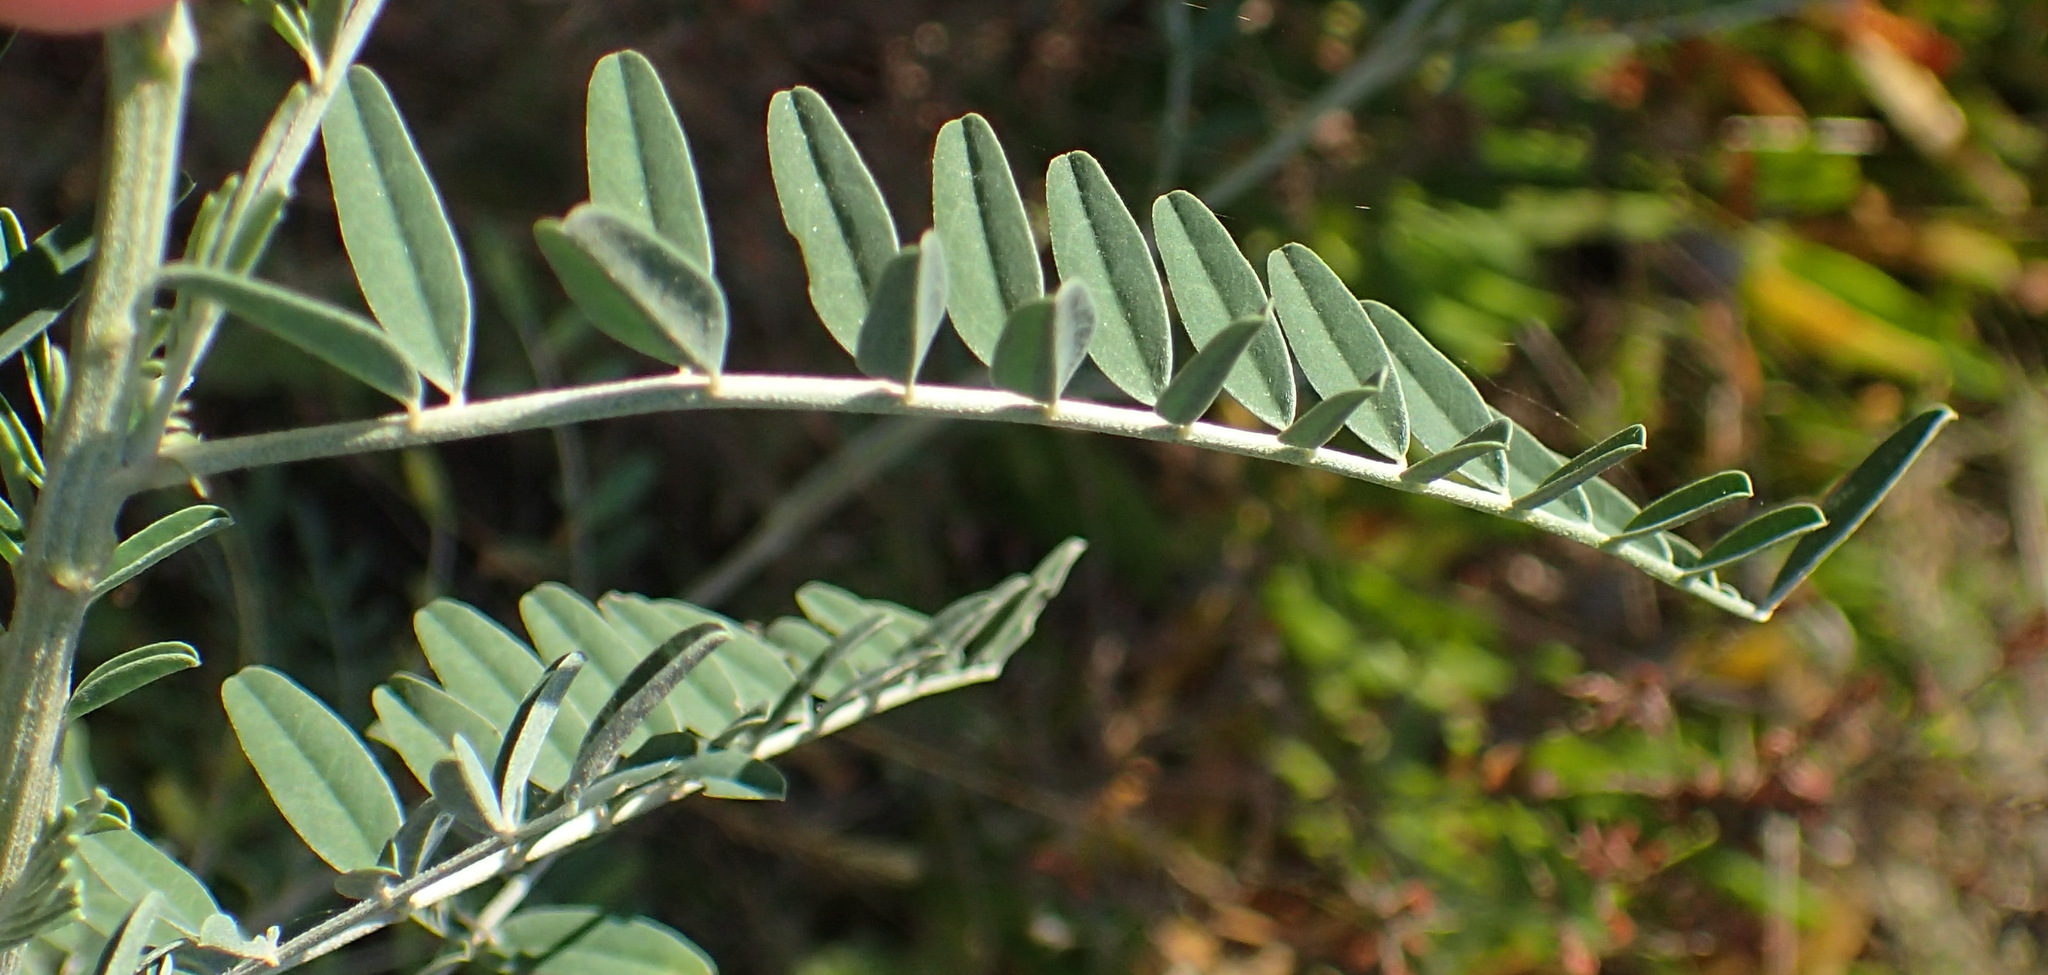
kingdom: Plantae
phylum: Tracheophyta
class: Magnoliopsida
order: Fabales
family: Fabaceae
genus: Lessertia
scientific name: Lessertia frutescens
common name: Balloon-pea
